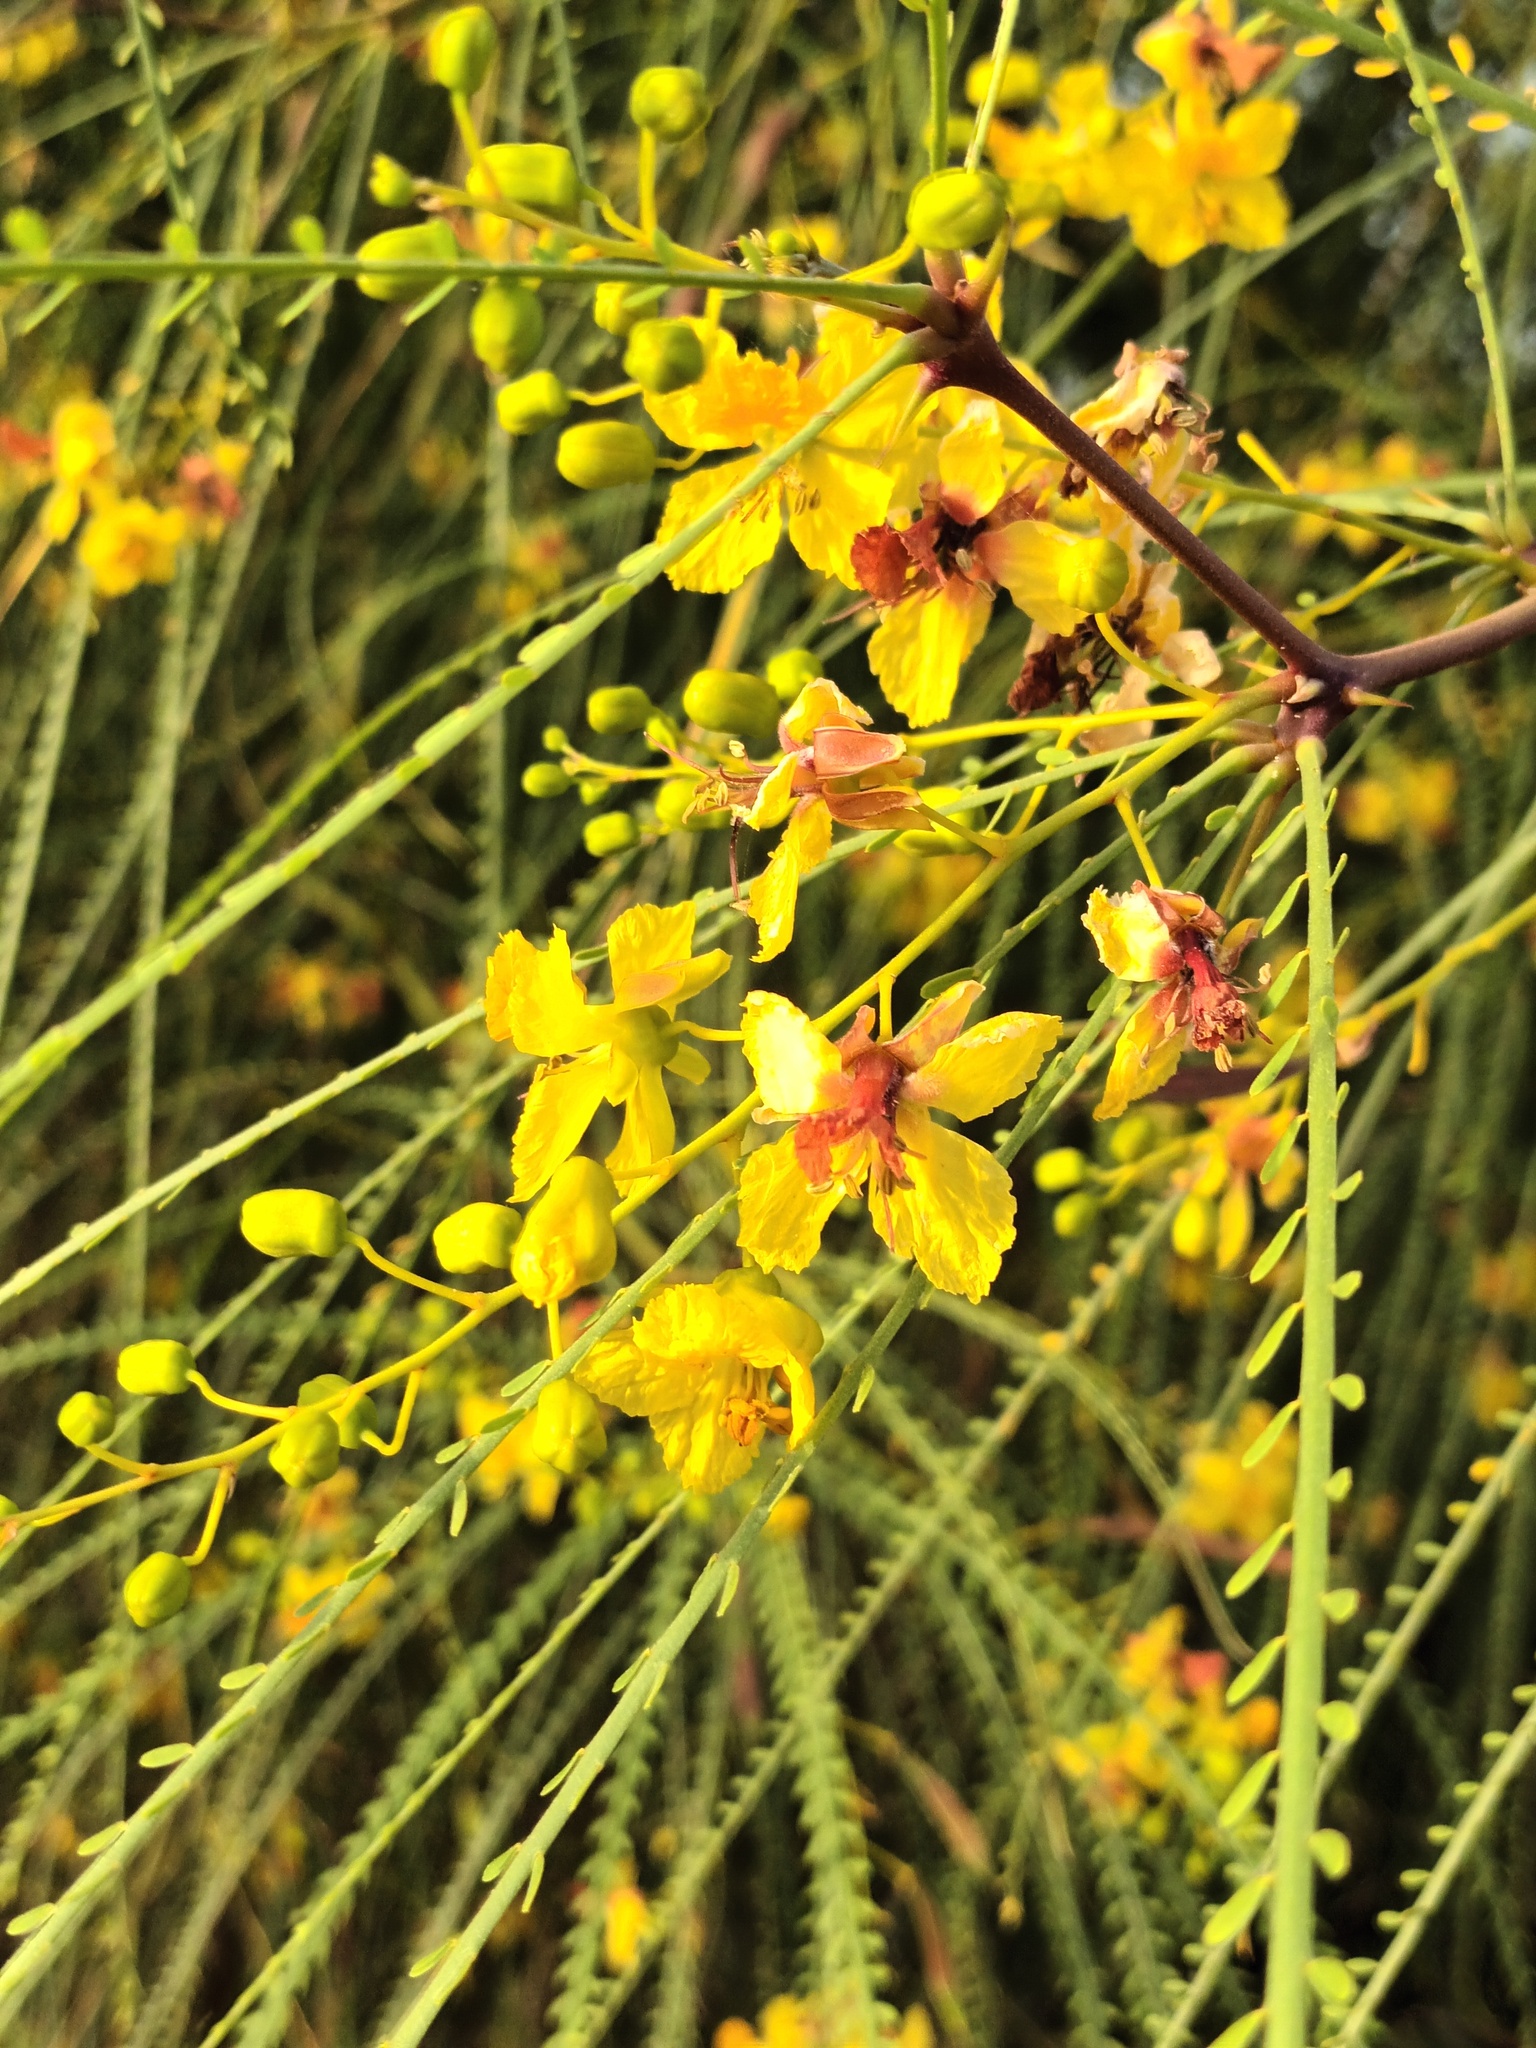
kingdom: Plantae
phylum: Tracheophyta
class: Magnoliopsida
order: Fabales
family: Fabaceae
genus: Parkinsonia
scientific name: Parkinsonia aculeata
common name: Jerusalem thorn
